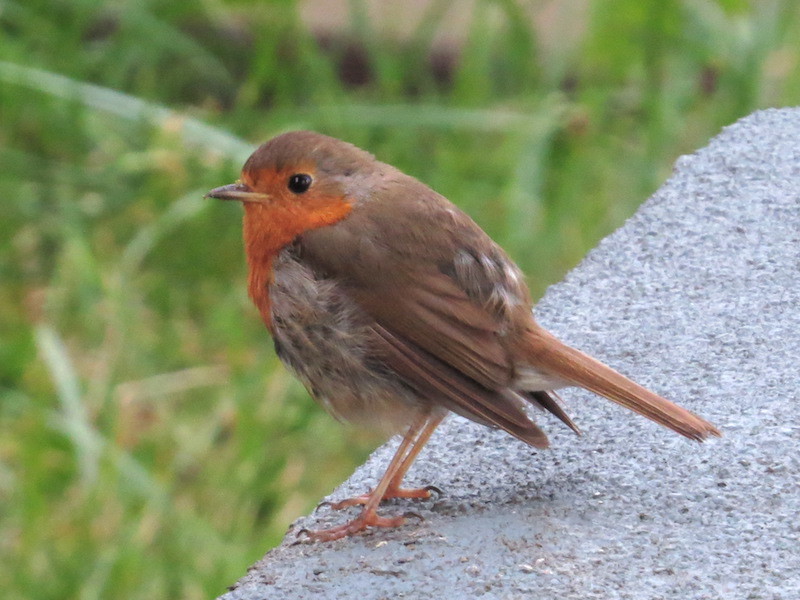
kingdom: Animalia
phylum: Chordata
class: Aves
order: Passeriformes
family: Muscicapidae
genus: Erithacus
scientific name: Erithacus rubecula
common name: European robin
